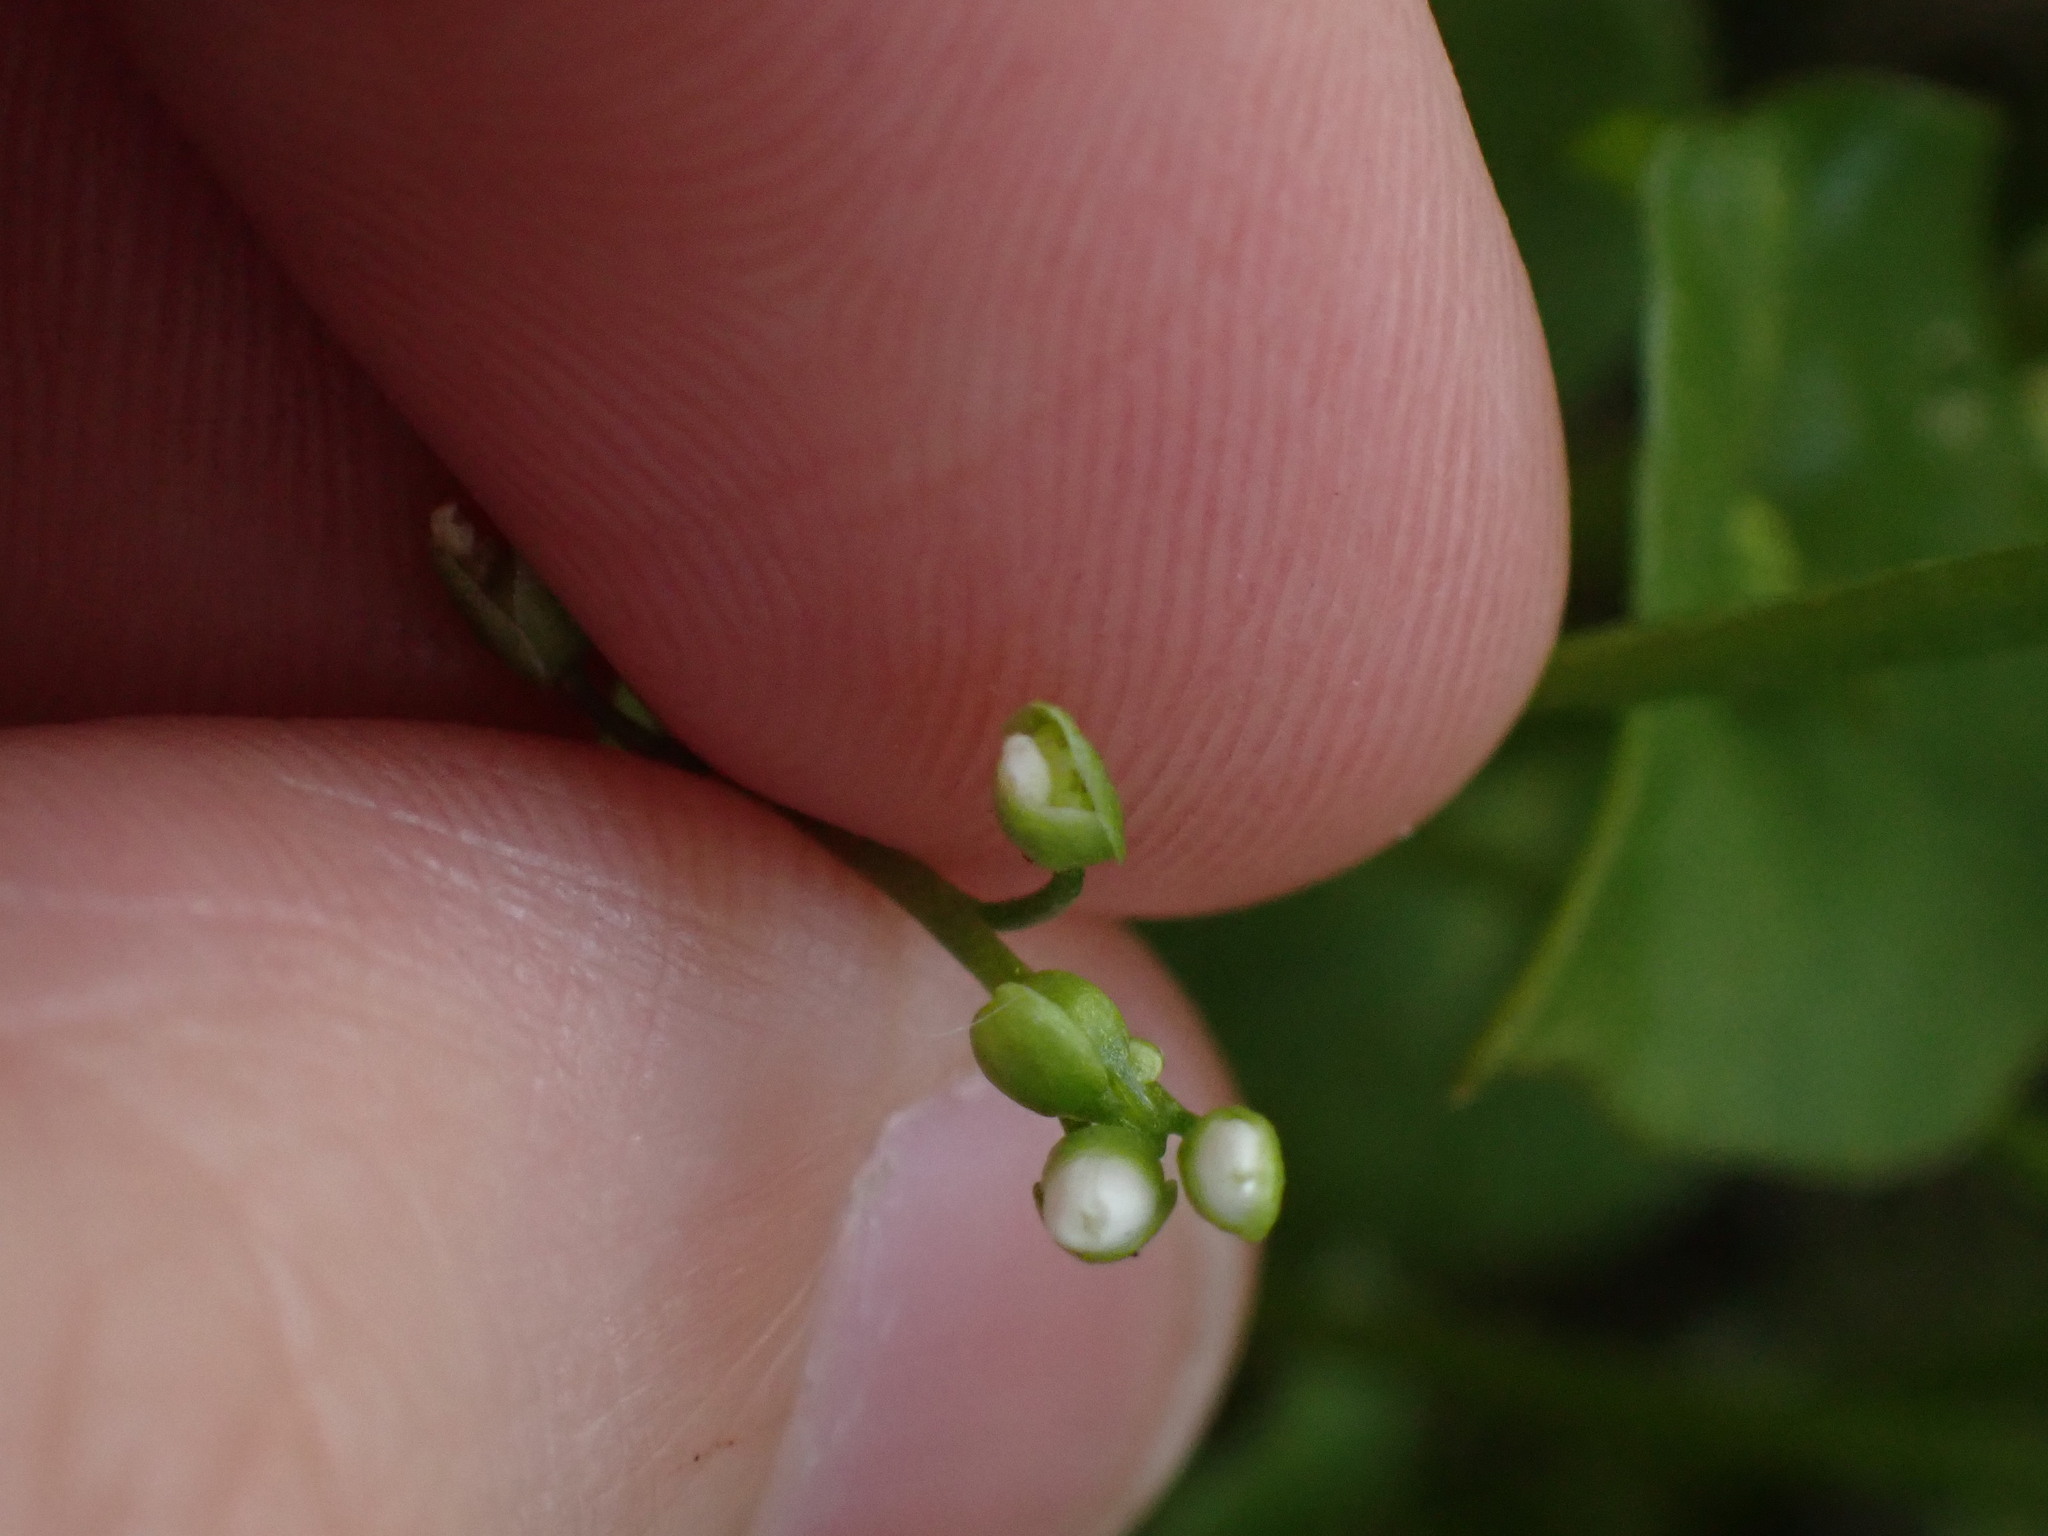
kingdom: Plantae
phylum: Tracheophyta
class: Magnoliopsida
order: Caryophyllales
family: Montiaceae
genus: Claytonia
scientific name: Claytonia perfoliata
